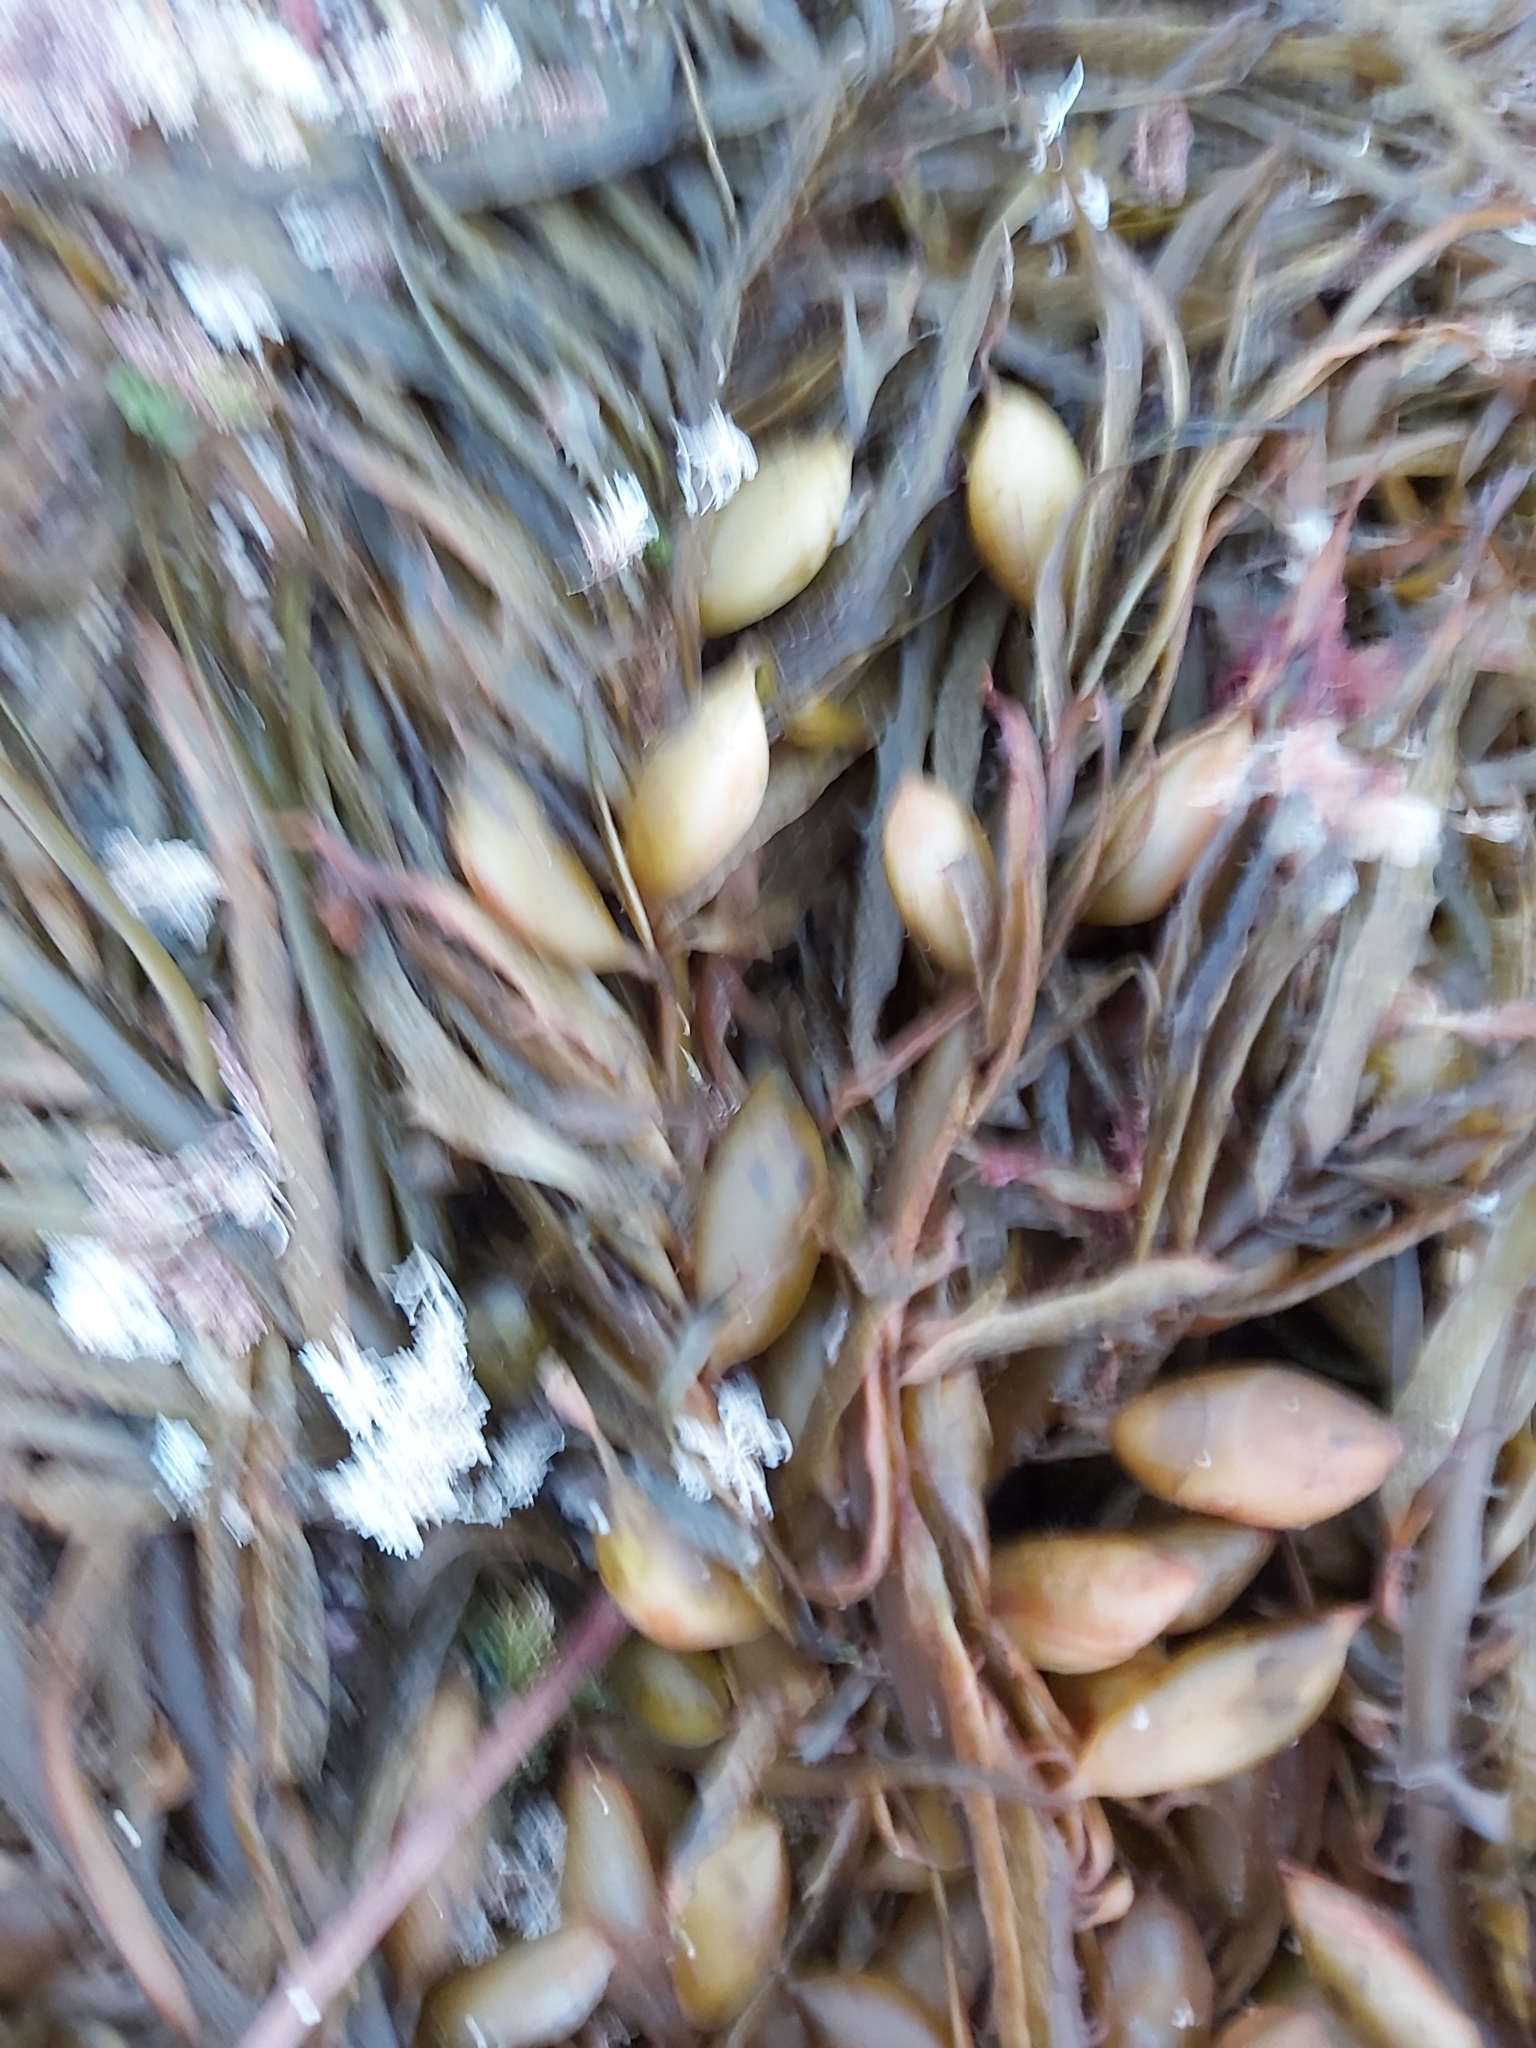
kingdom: Chromista
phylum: Ochrophyta
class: Phaeophyceae
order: Fucales
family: Seirococcaceae
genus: Phyllospora
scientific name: Phyllospora
